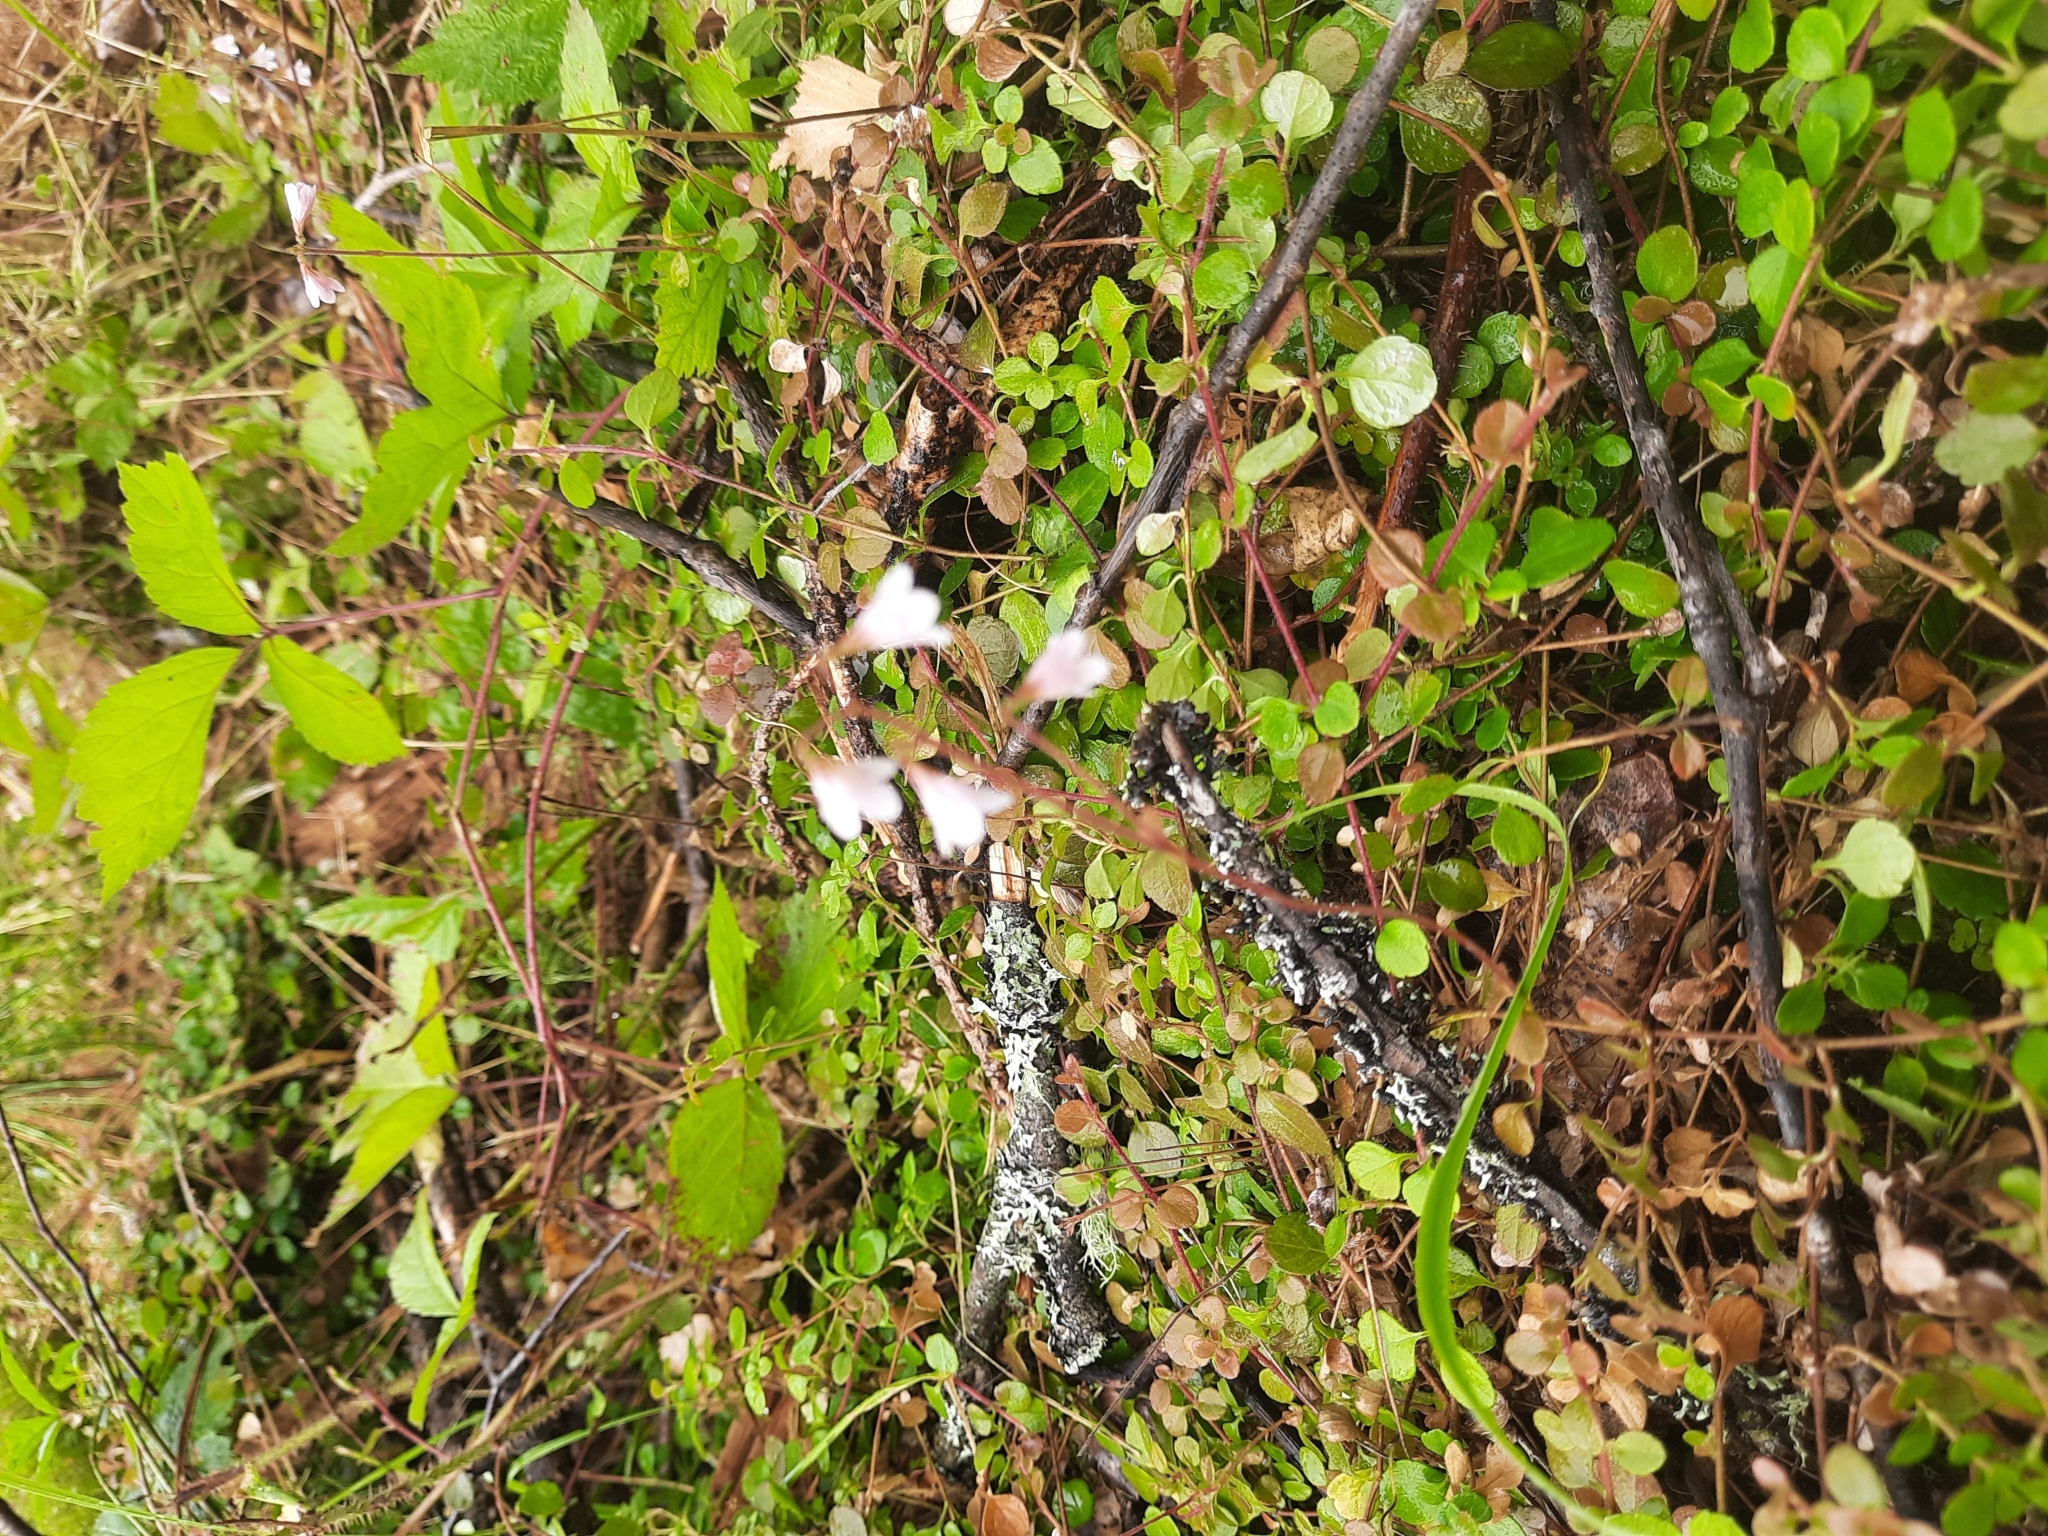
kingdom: Plantae
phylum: Tracheophyta
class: Magnoliopsida
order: Dipsacales
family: Caprifoliaceae
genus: Linnaea
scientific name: Linnaea borealis
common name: Twinflower
